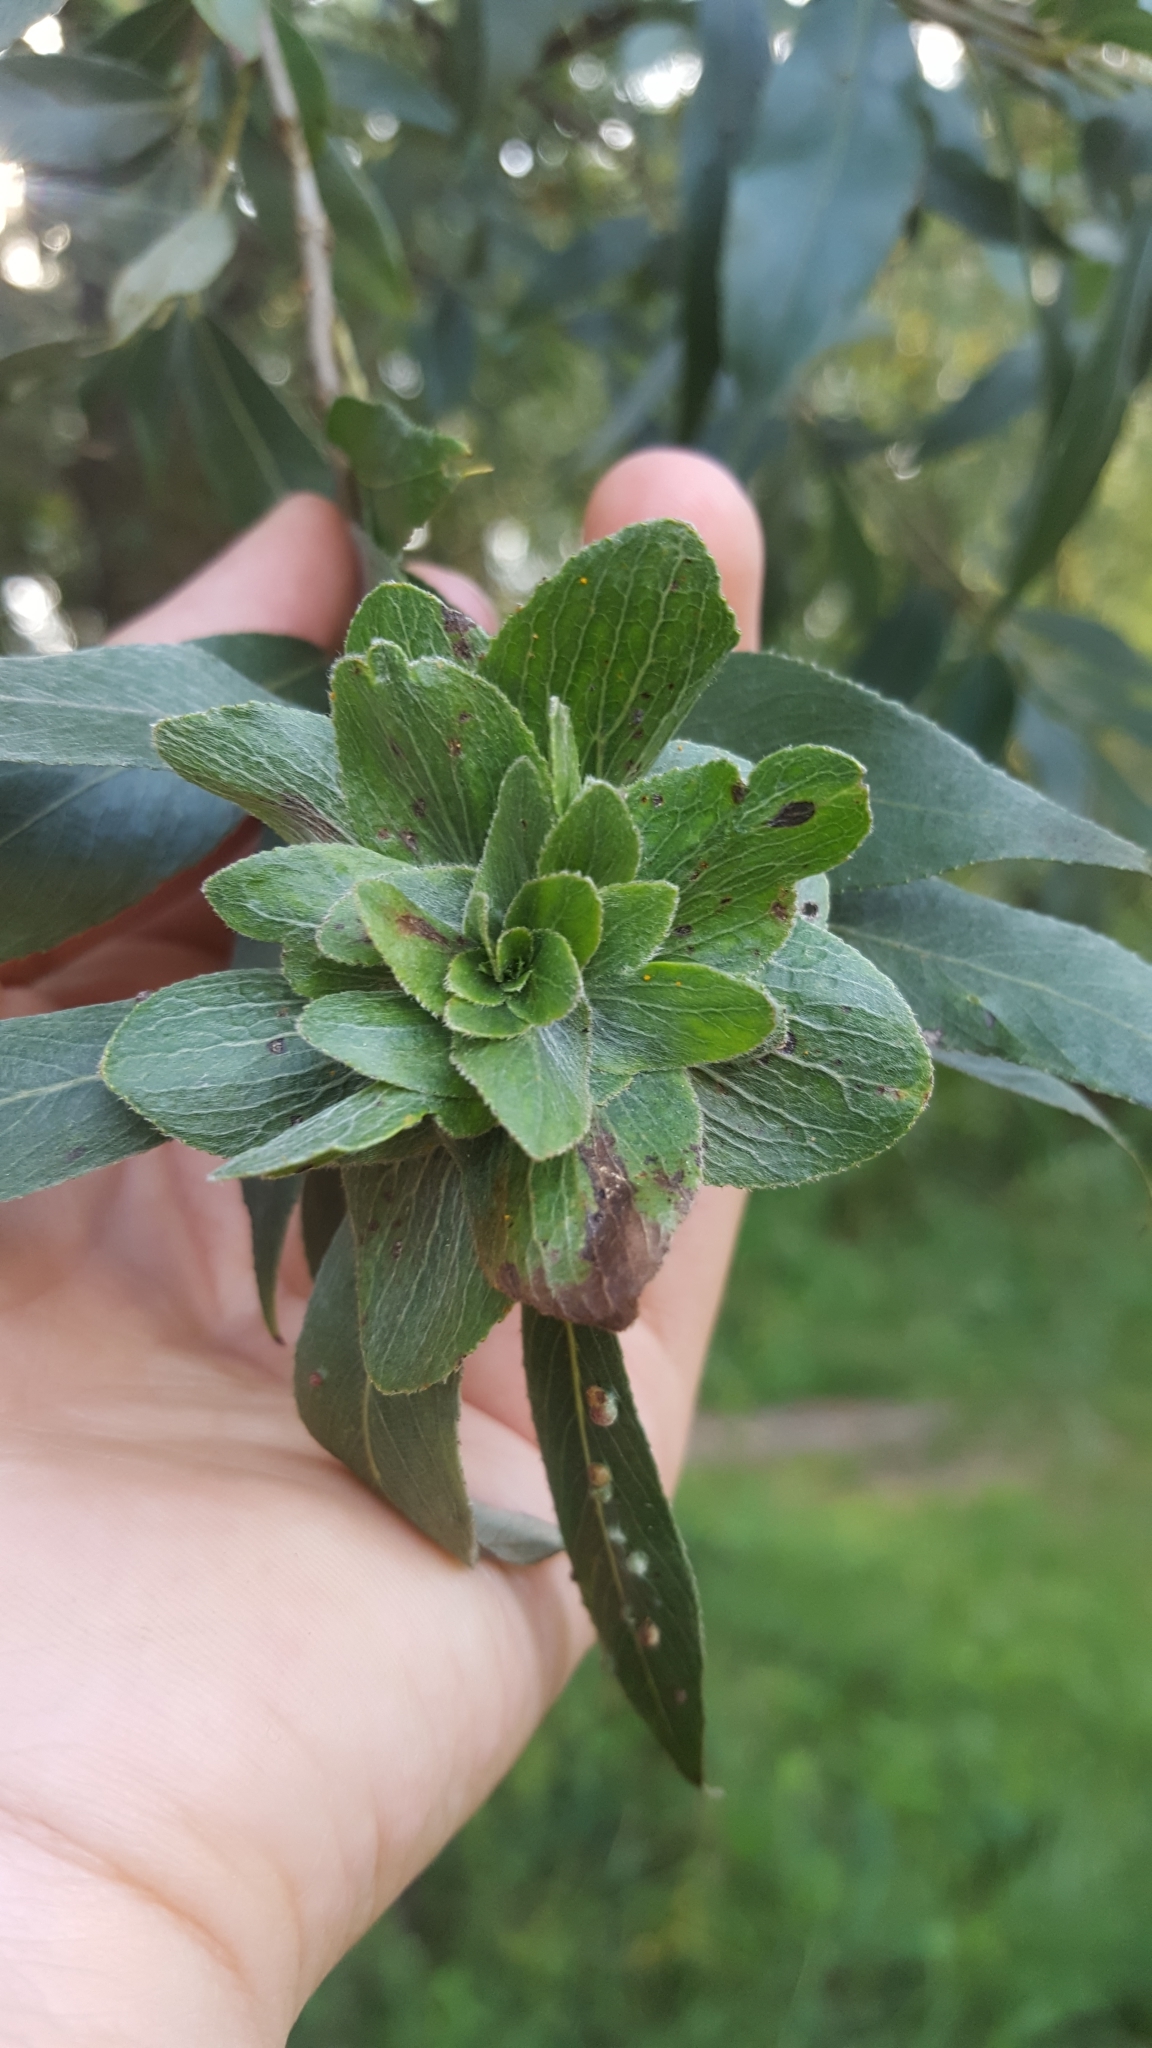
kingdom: Animalia
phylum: Arthropoda
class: Insecta
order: Diptera
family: Cecidomyiidae
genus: Rabdophaga
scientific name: Rabdophaga rosaria
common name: Willow rose gall midge
